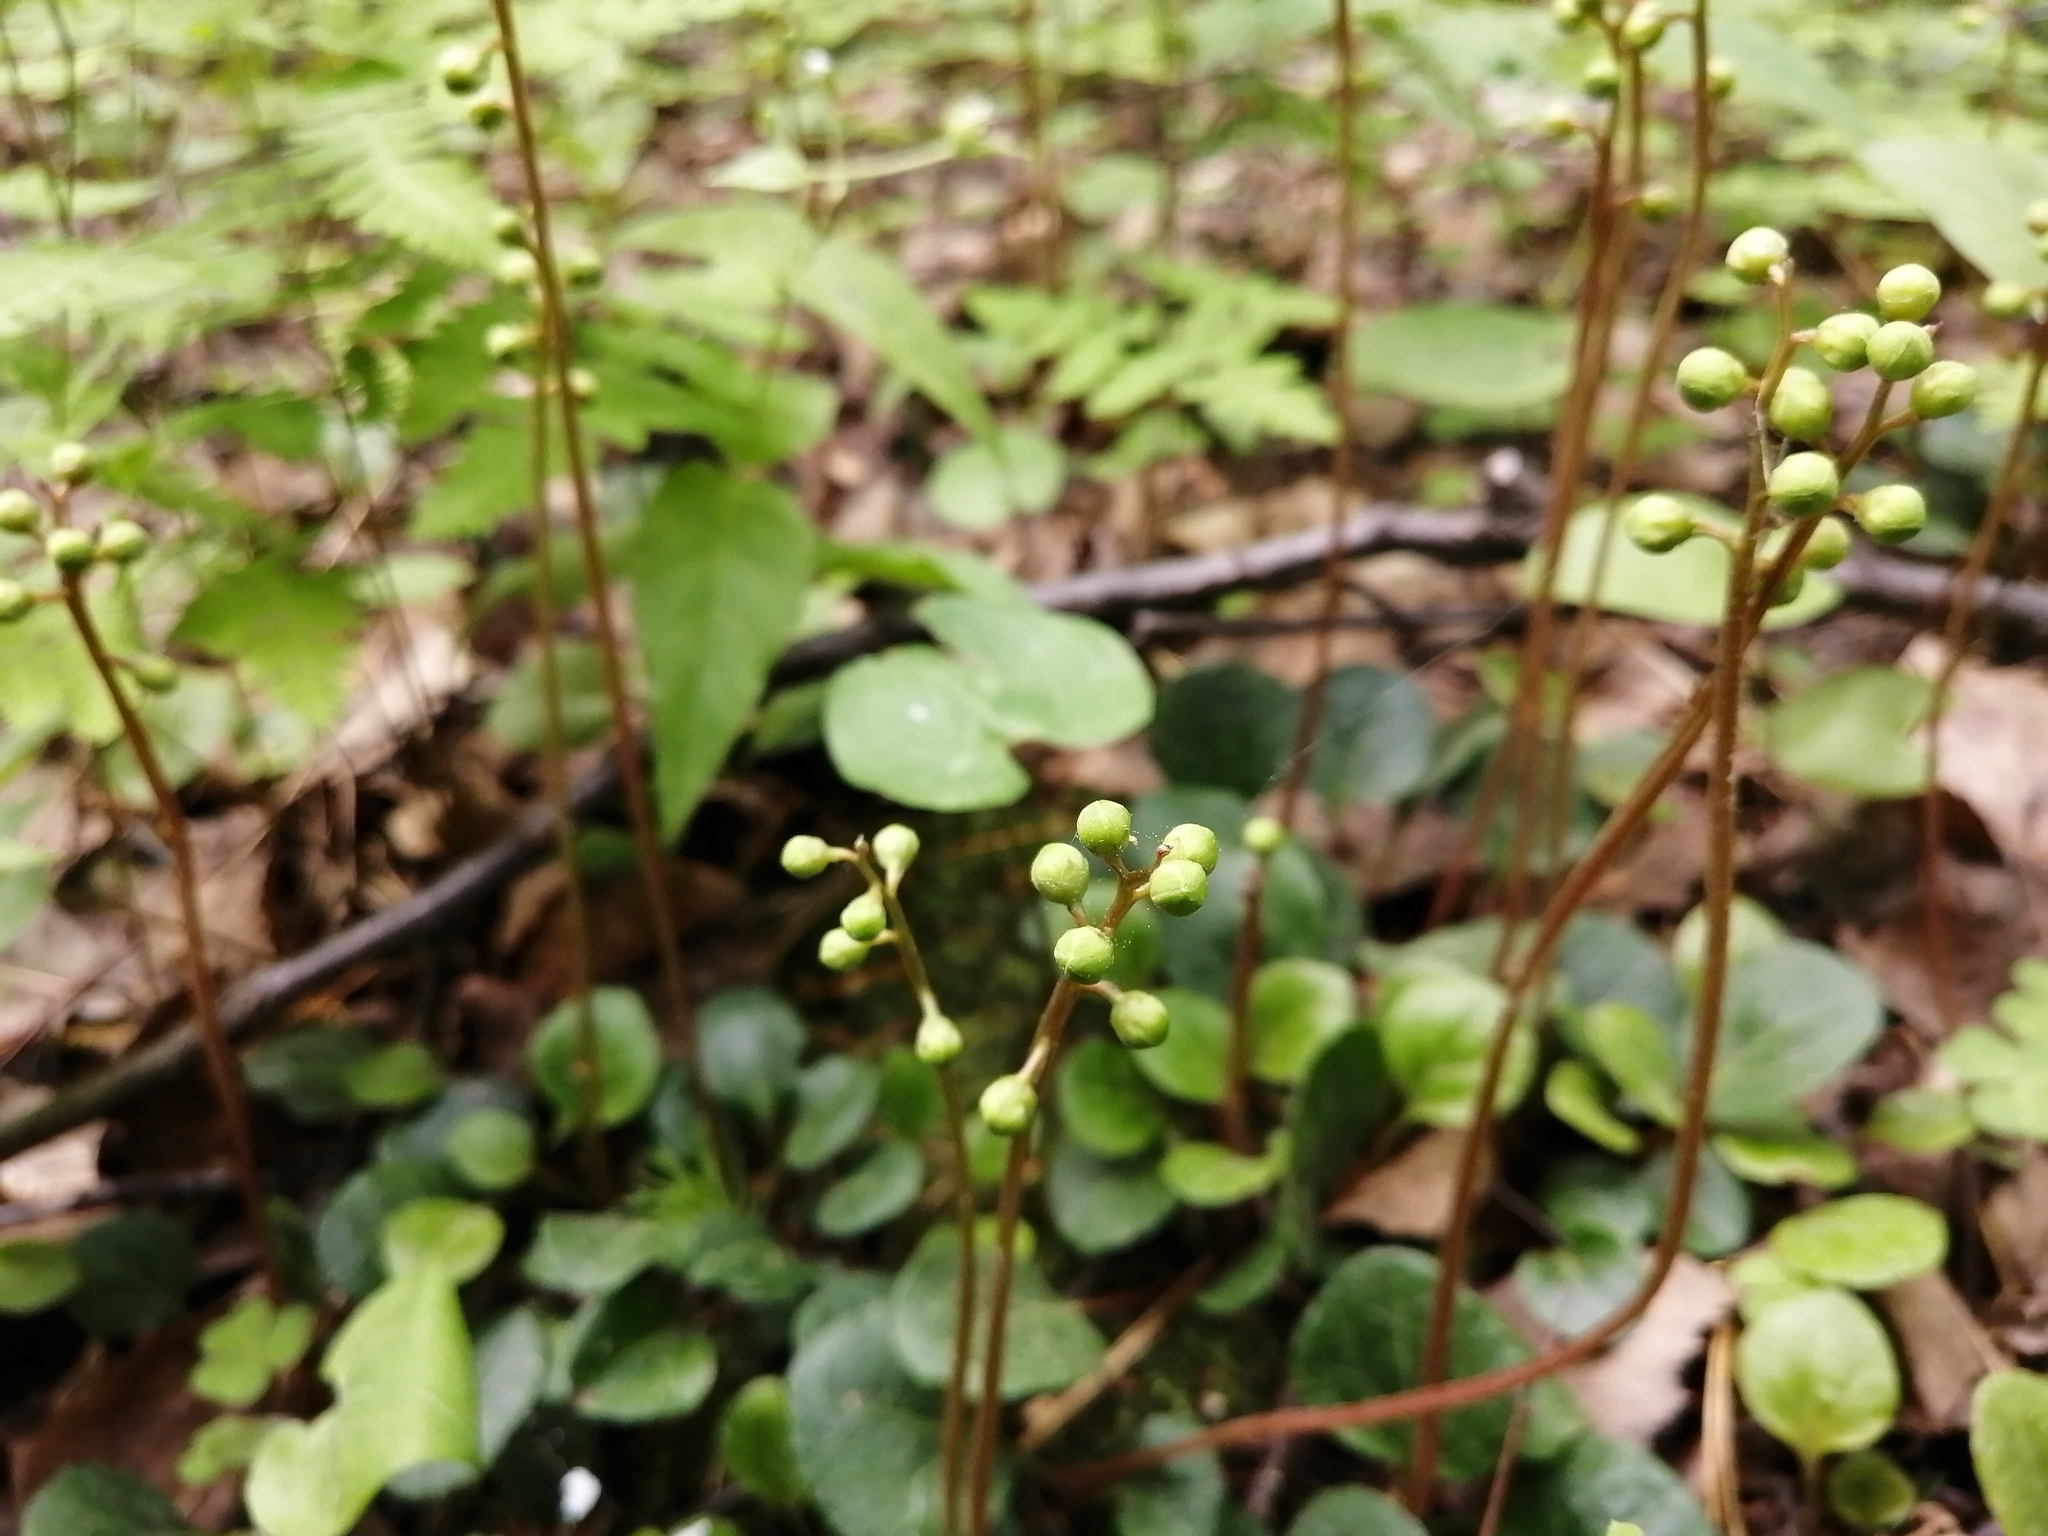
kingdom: Plantae
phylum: Tracheophyta
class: Magnoliopsida
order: Ericales
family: Ericaceae
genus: Pyrola
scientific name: Pyrola chlorantha
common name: Green wintergreen
